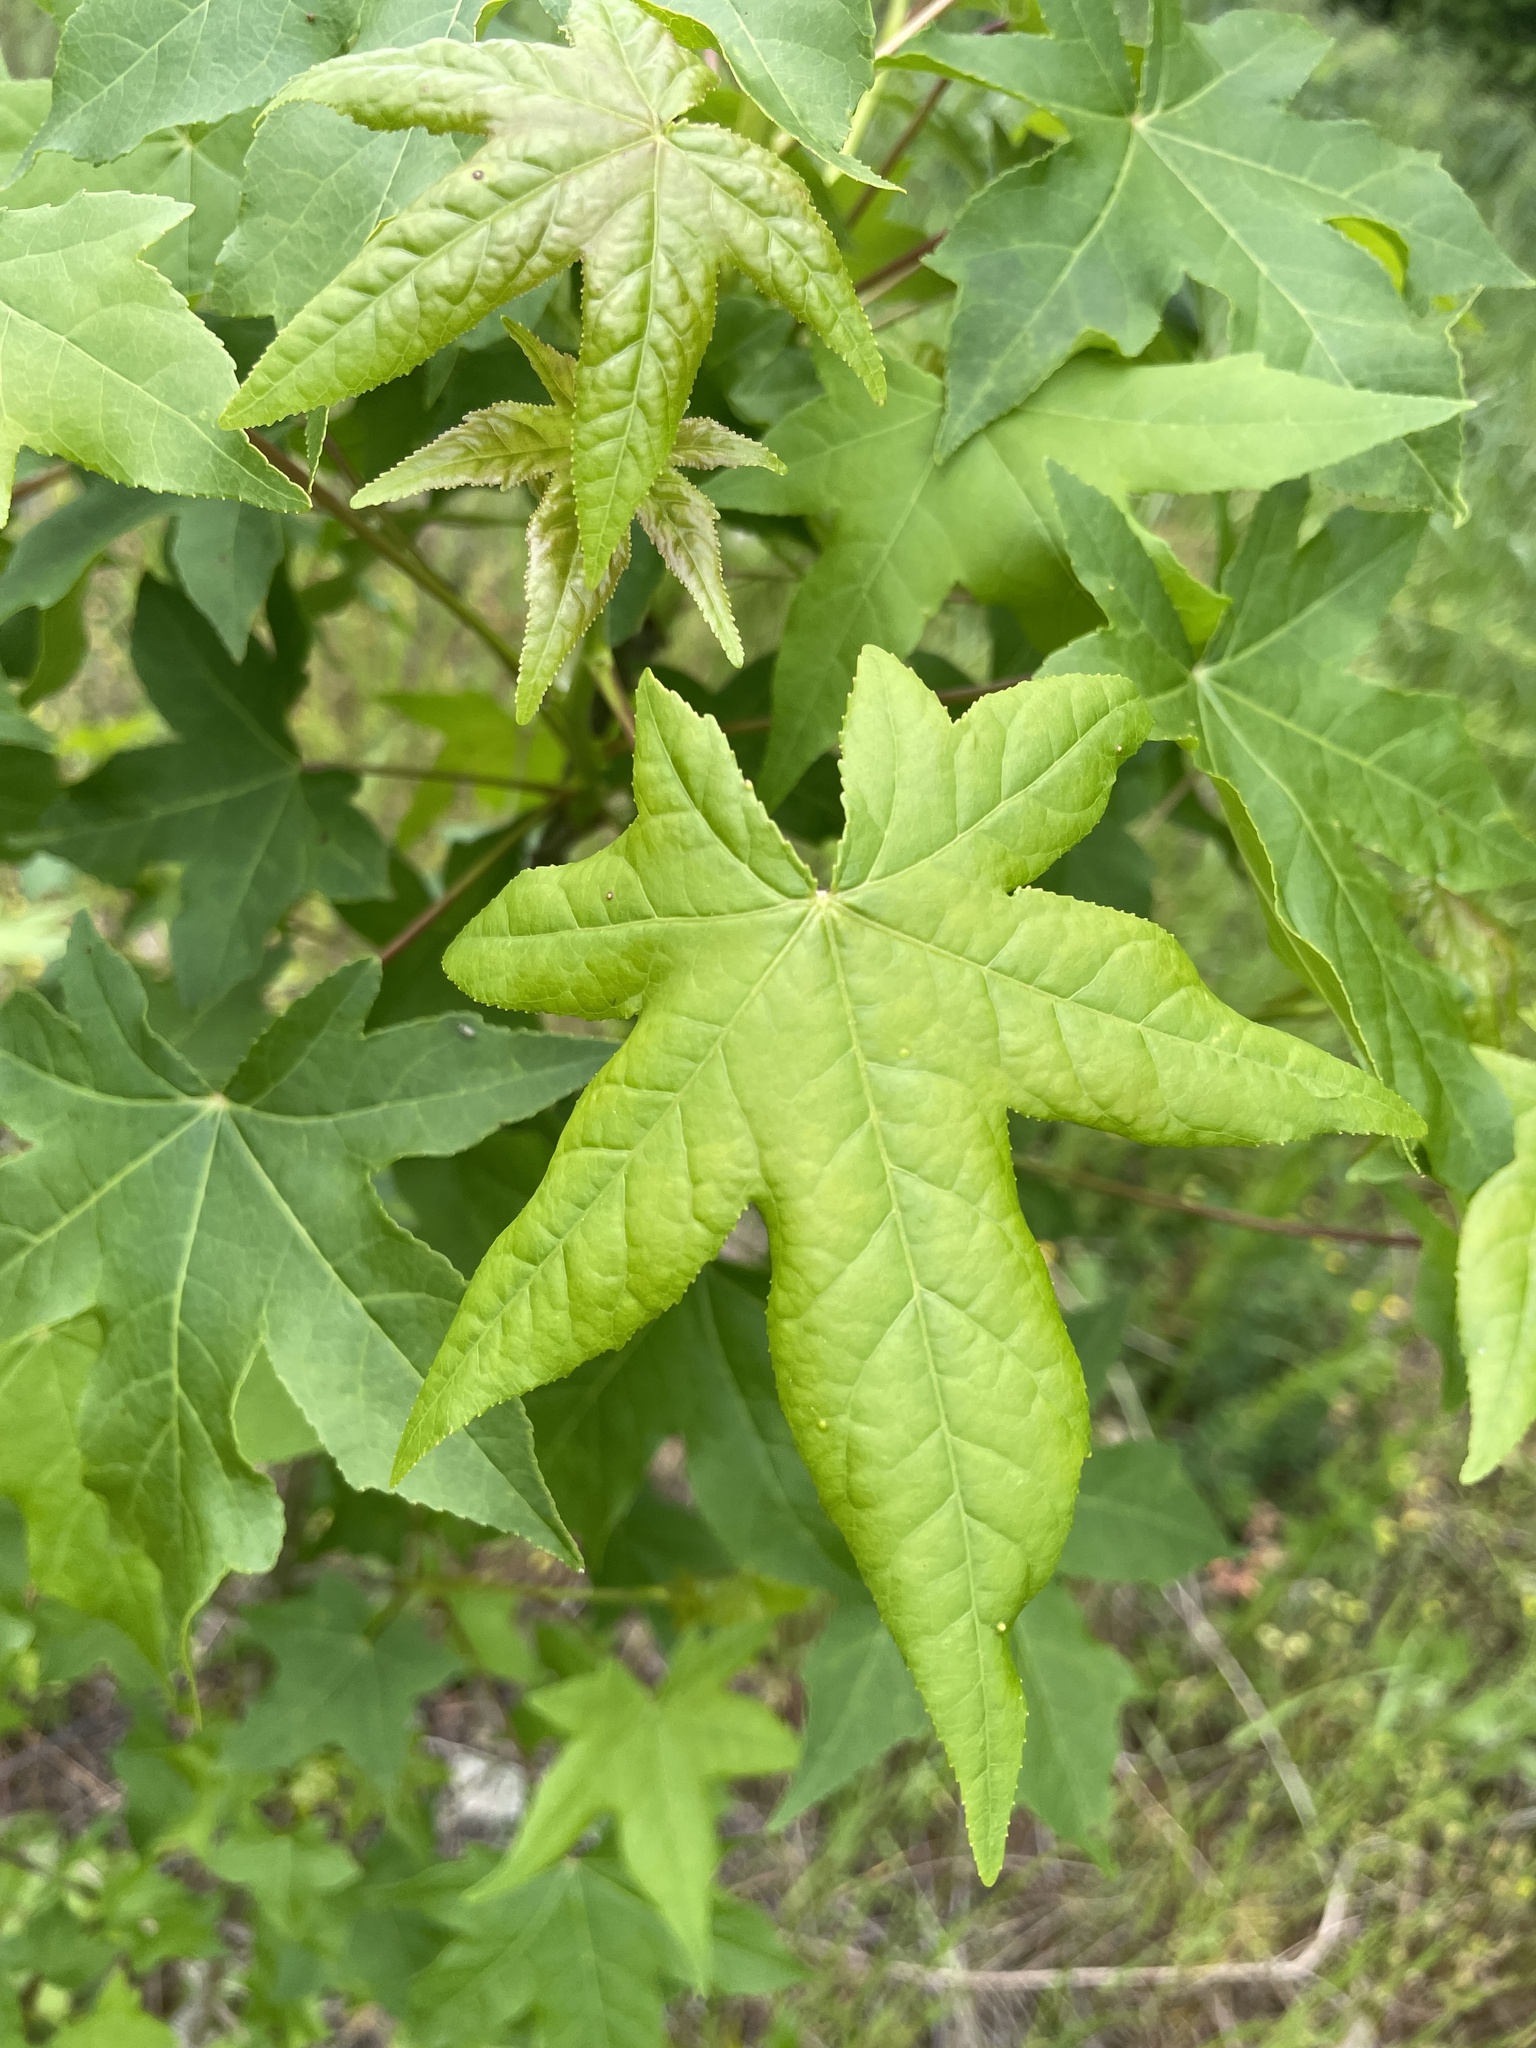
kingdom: Plantae
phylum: Tracheophyta
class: Magnoliopsida
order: Saxifragales
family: Altingiaceae
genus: Liquidambar
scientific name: Liquidambar styraciflua
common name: Sweet gum
